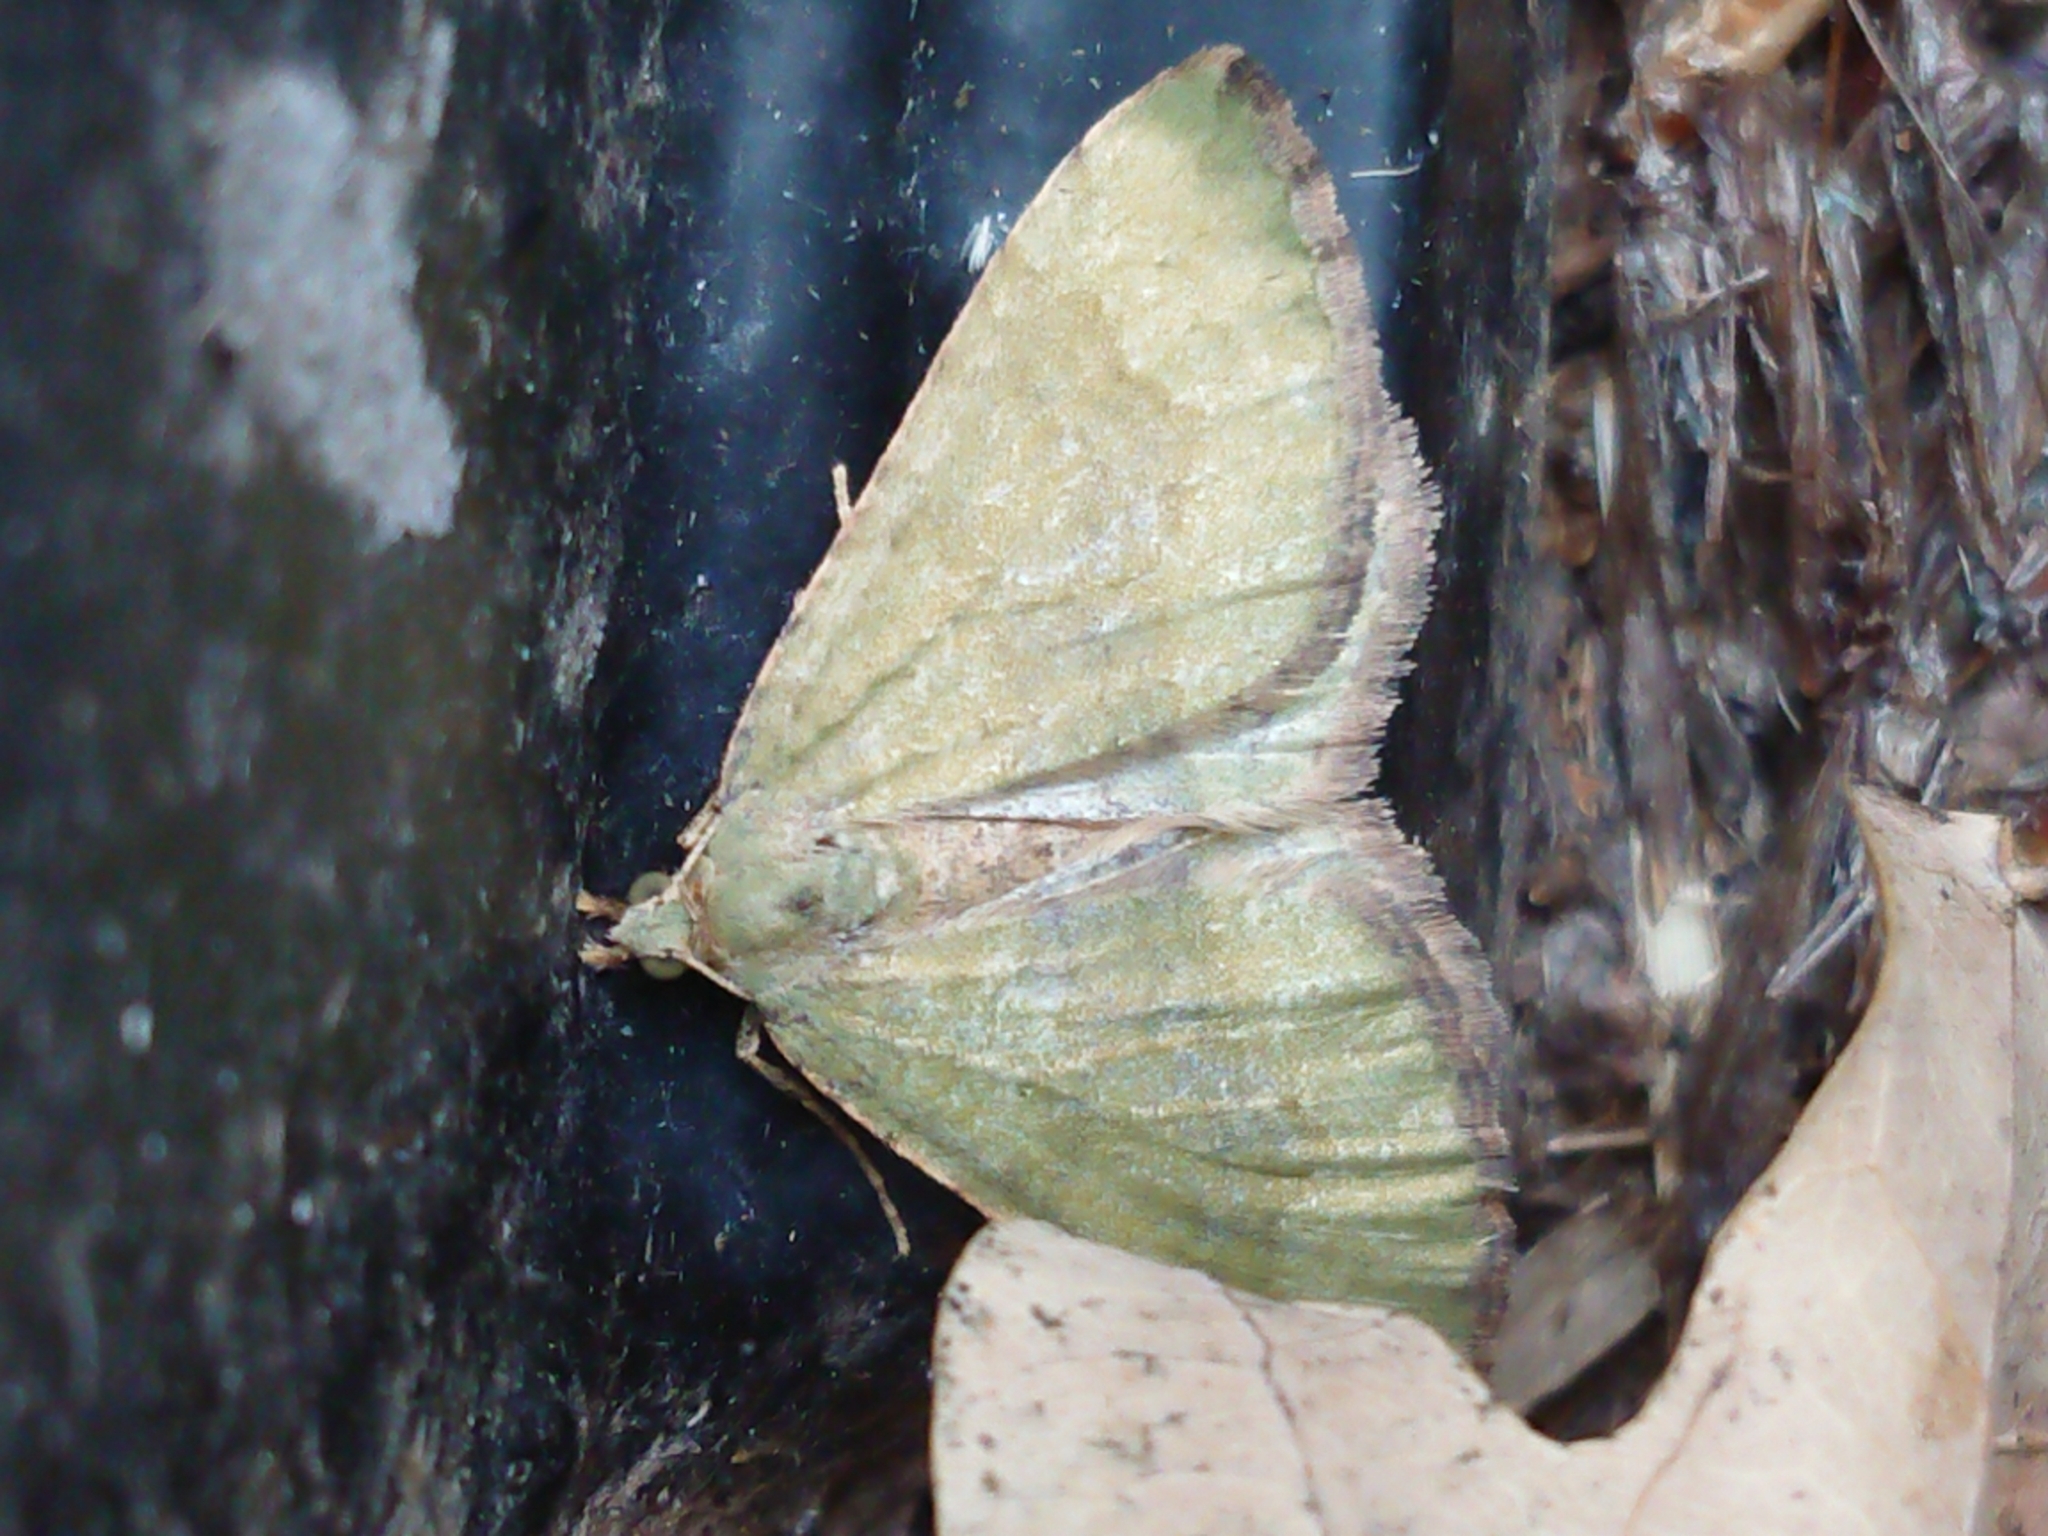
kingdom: Animalia
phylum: Arthropoda
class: Insecta
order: Lepidoptera
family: Geometridae
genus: Epyaxa
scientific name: Epyaxa rosearia
